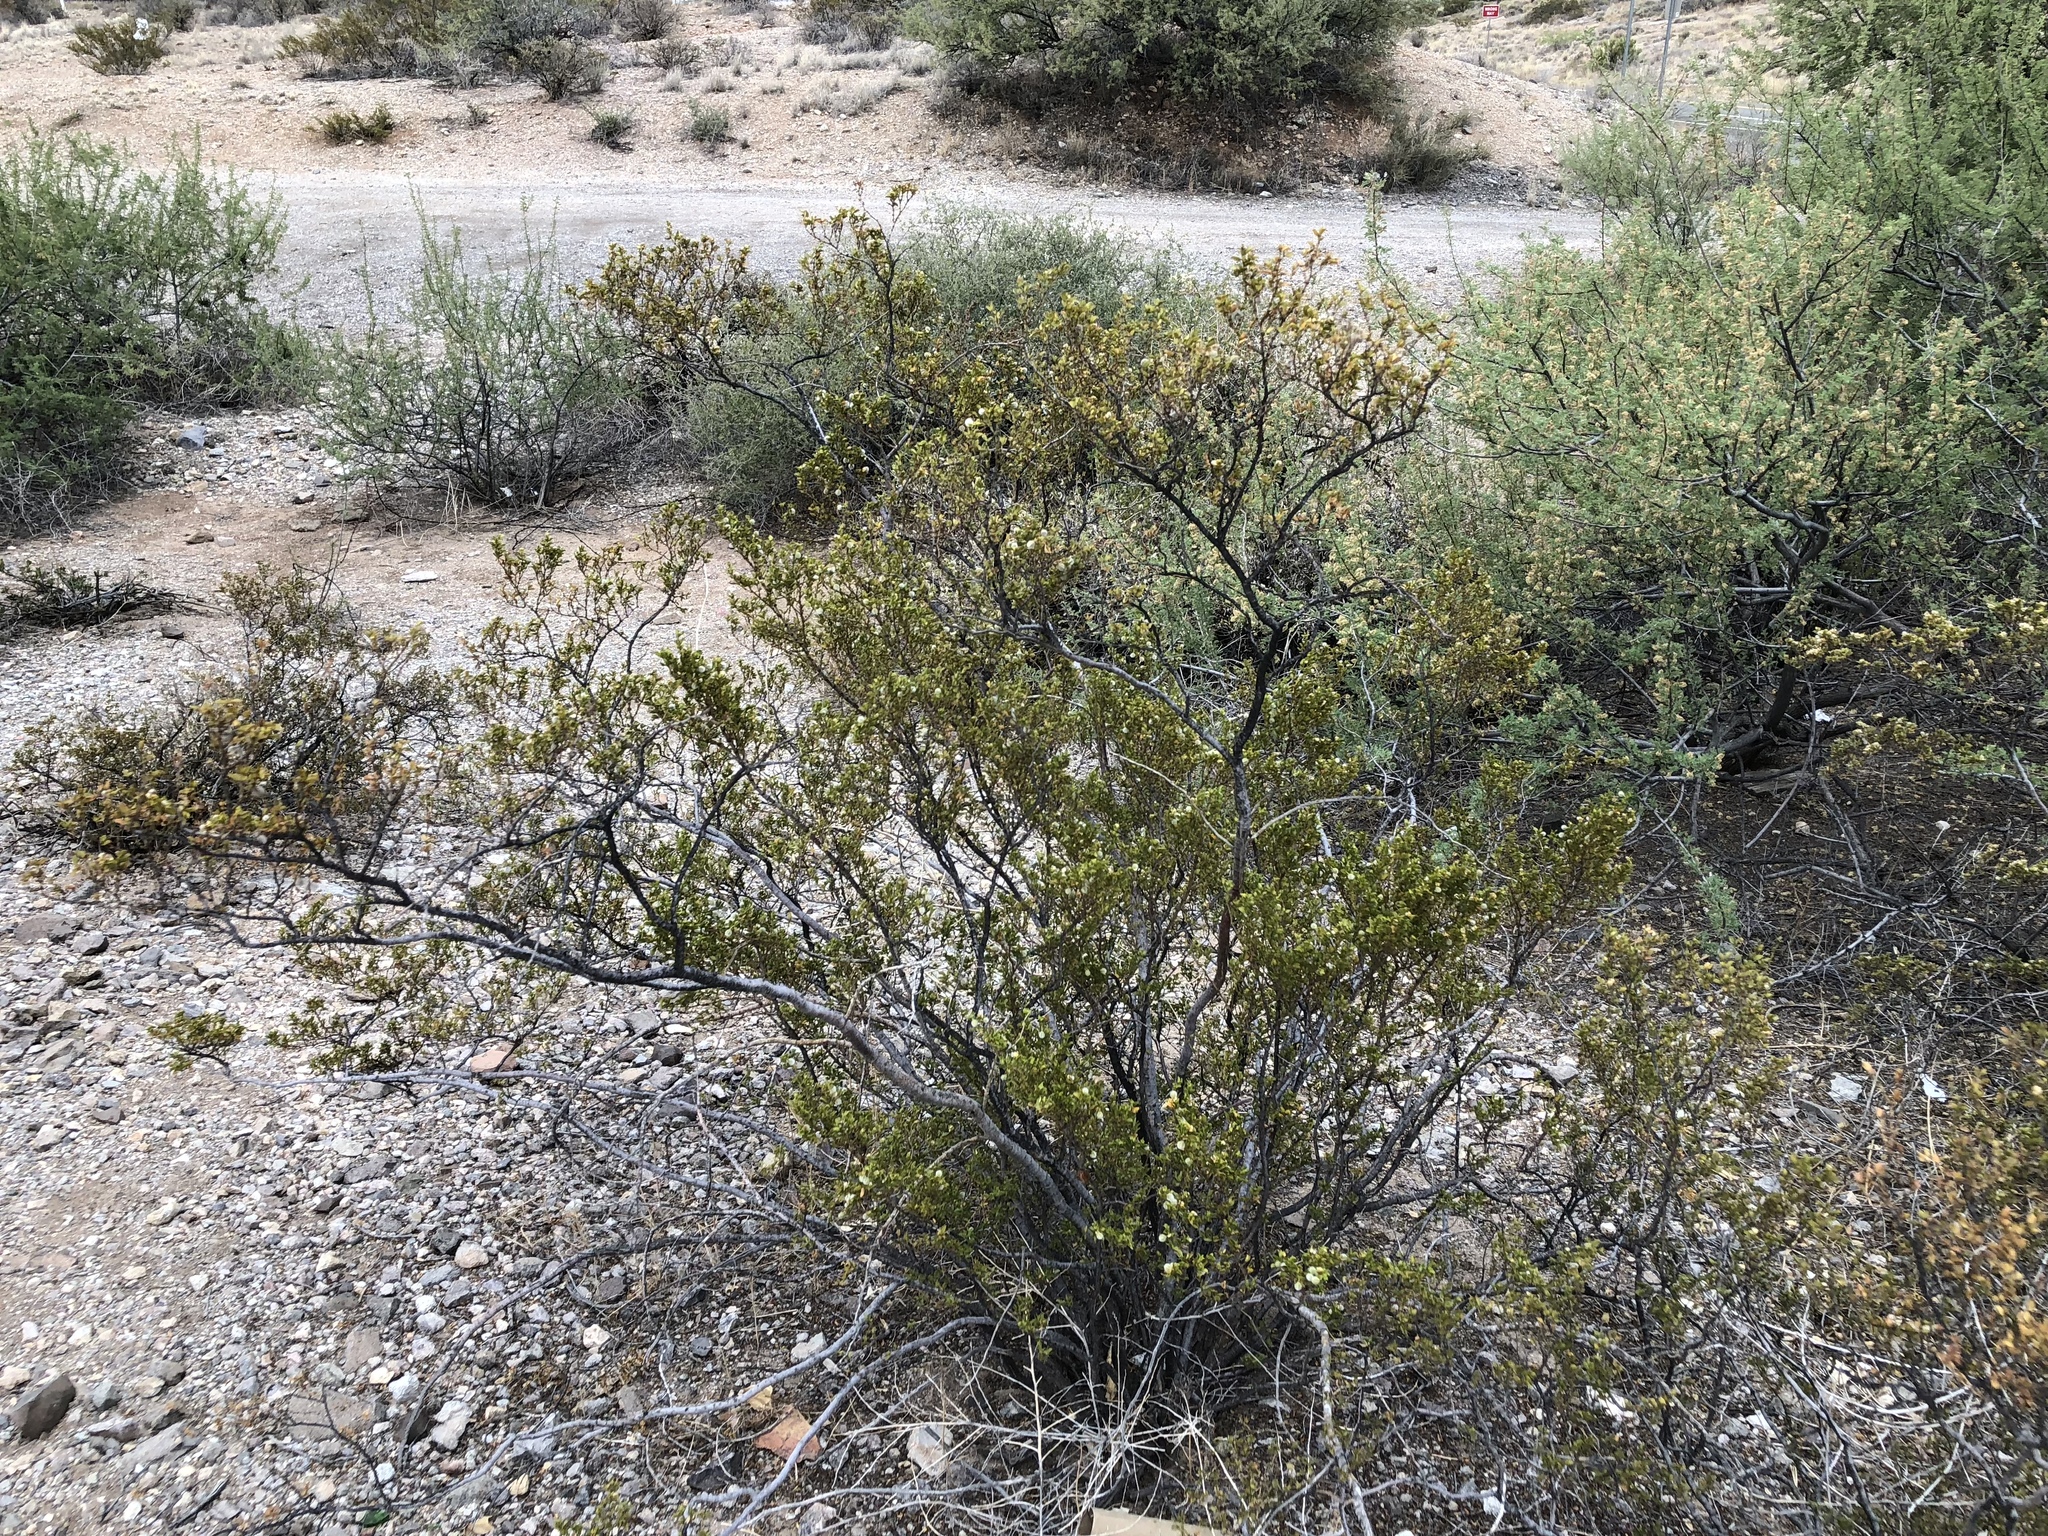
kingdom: Plantae
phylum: Tracheophyta
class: Magnoliopsida
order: Zygophyllales
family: Zygophyllaceae
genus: Larrea
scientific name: Larrea tridentata
